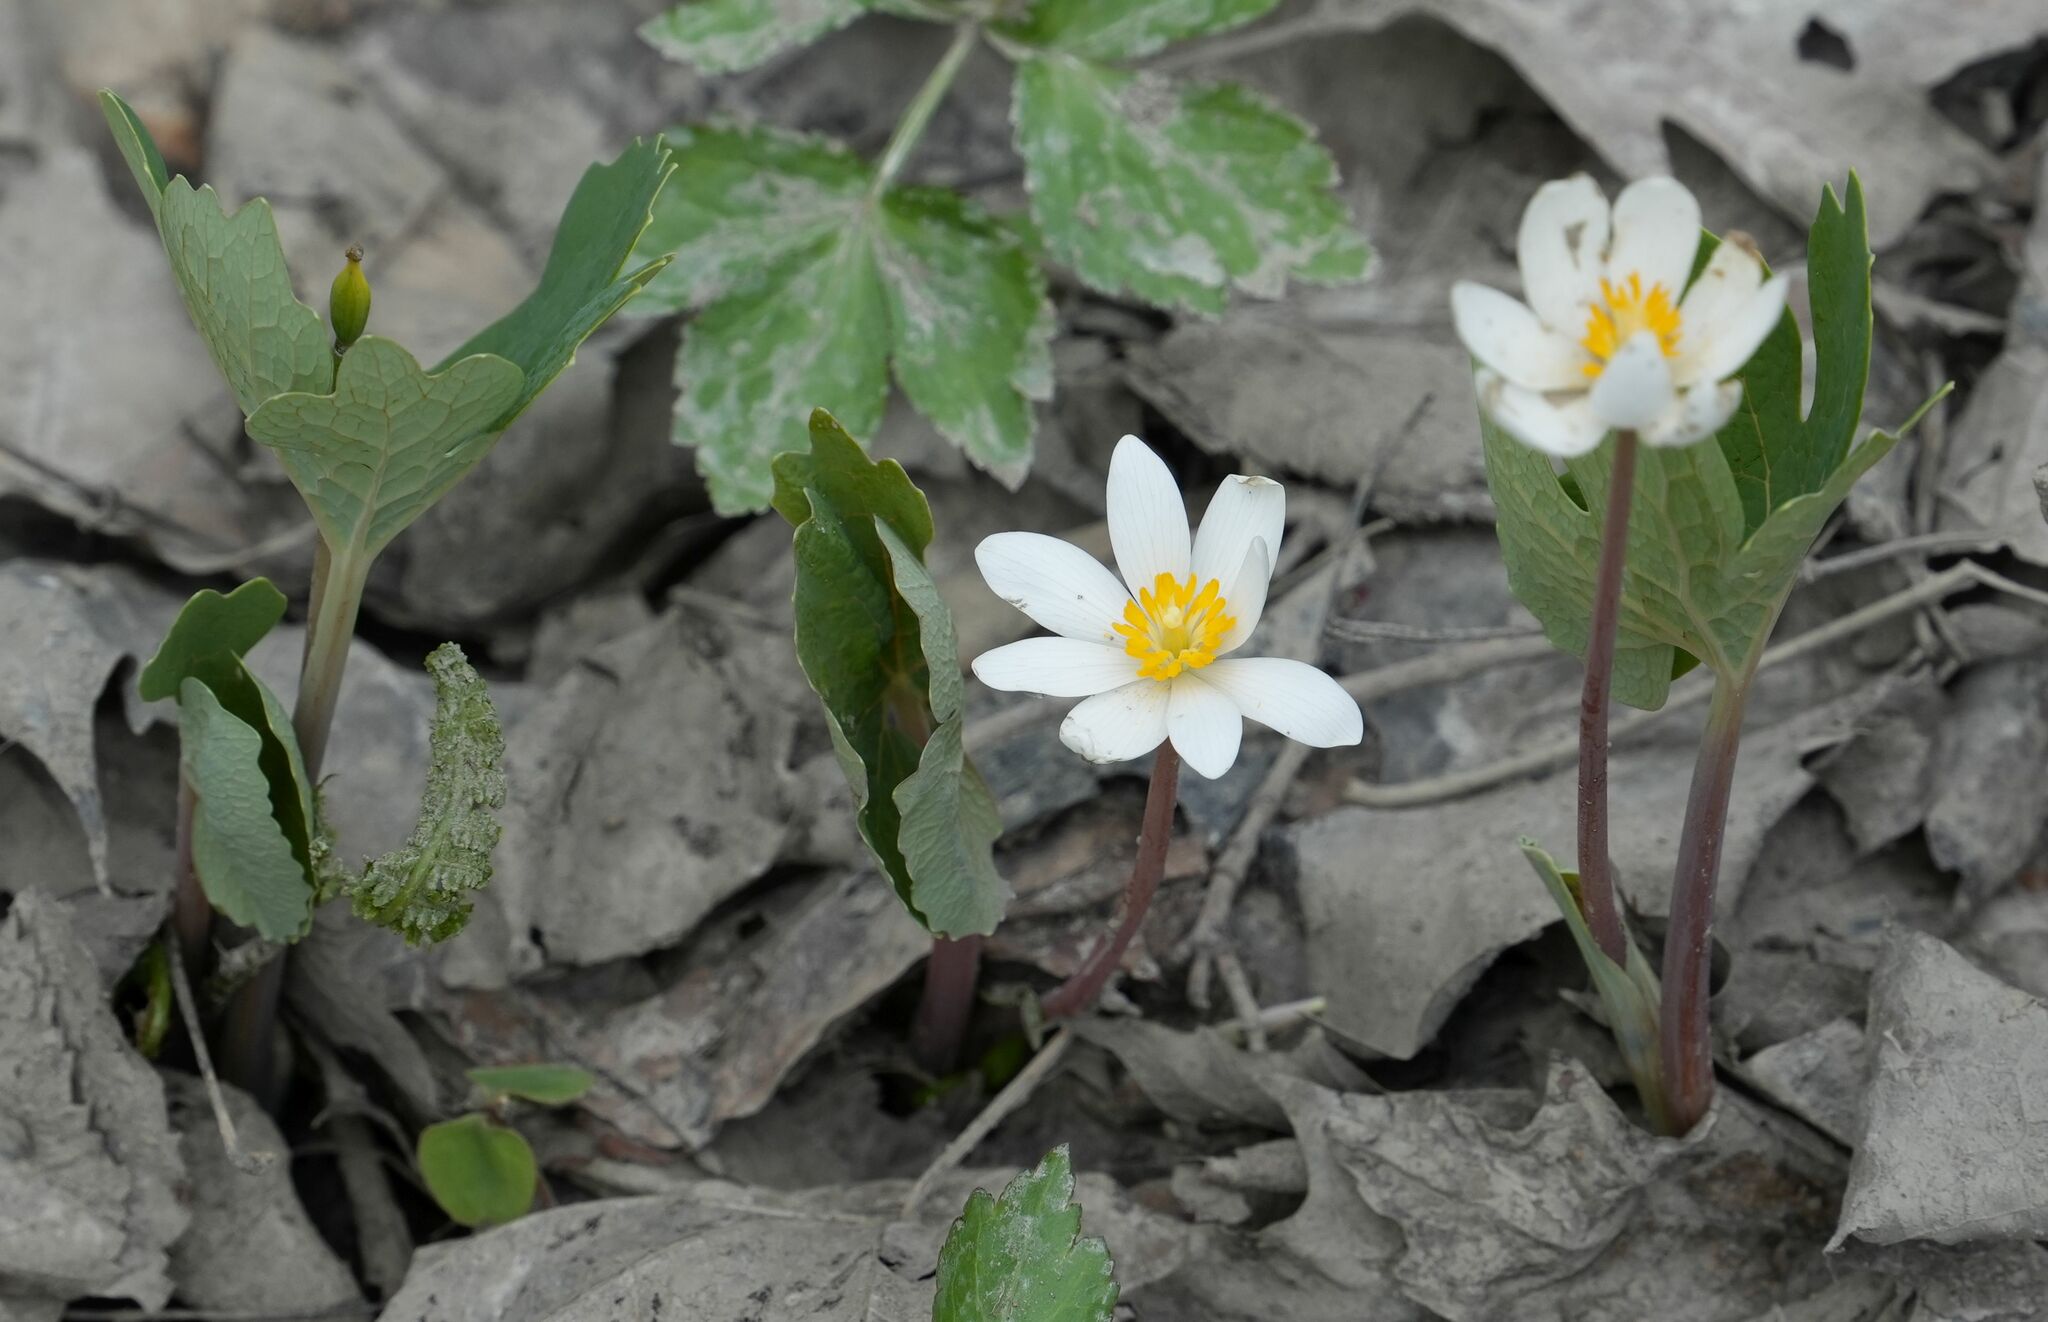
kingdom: Plantae
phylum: Tracheophyta
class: Magnoliopsida
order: Ranunculales
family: Papaveraceae
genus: Sanguinaria
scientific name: Sanguinaria canadensis
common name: Bloodroot
